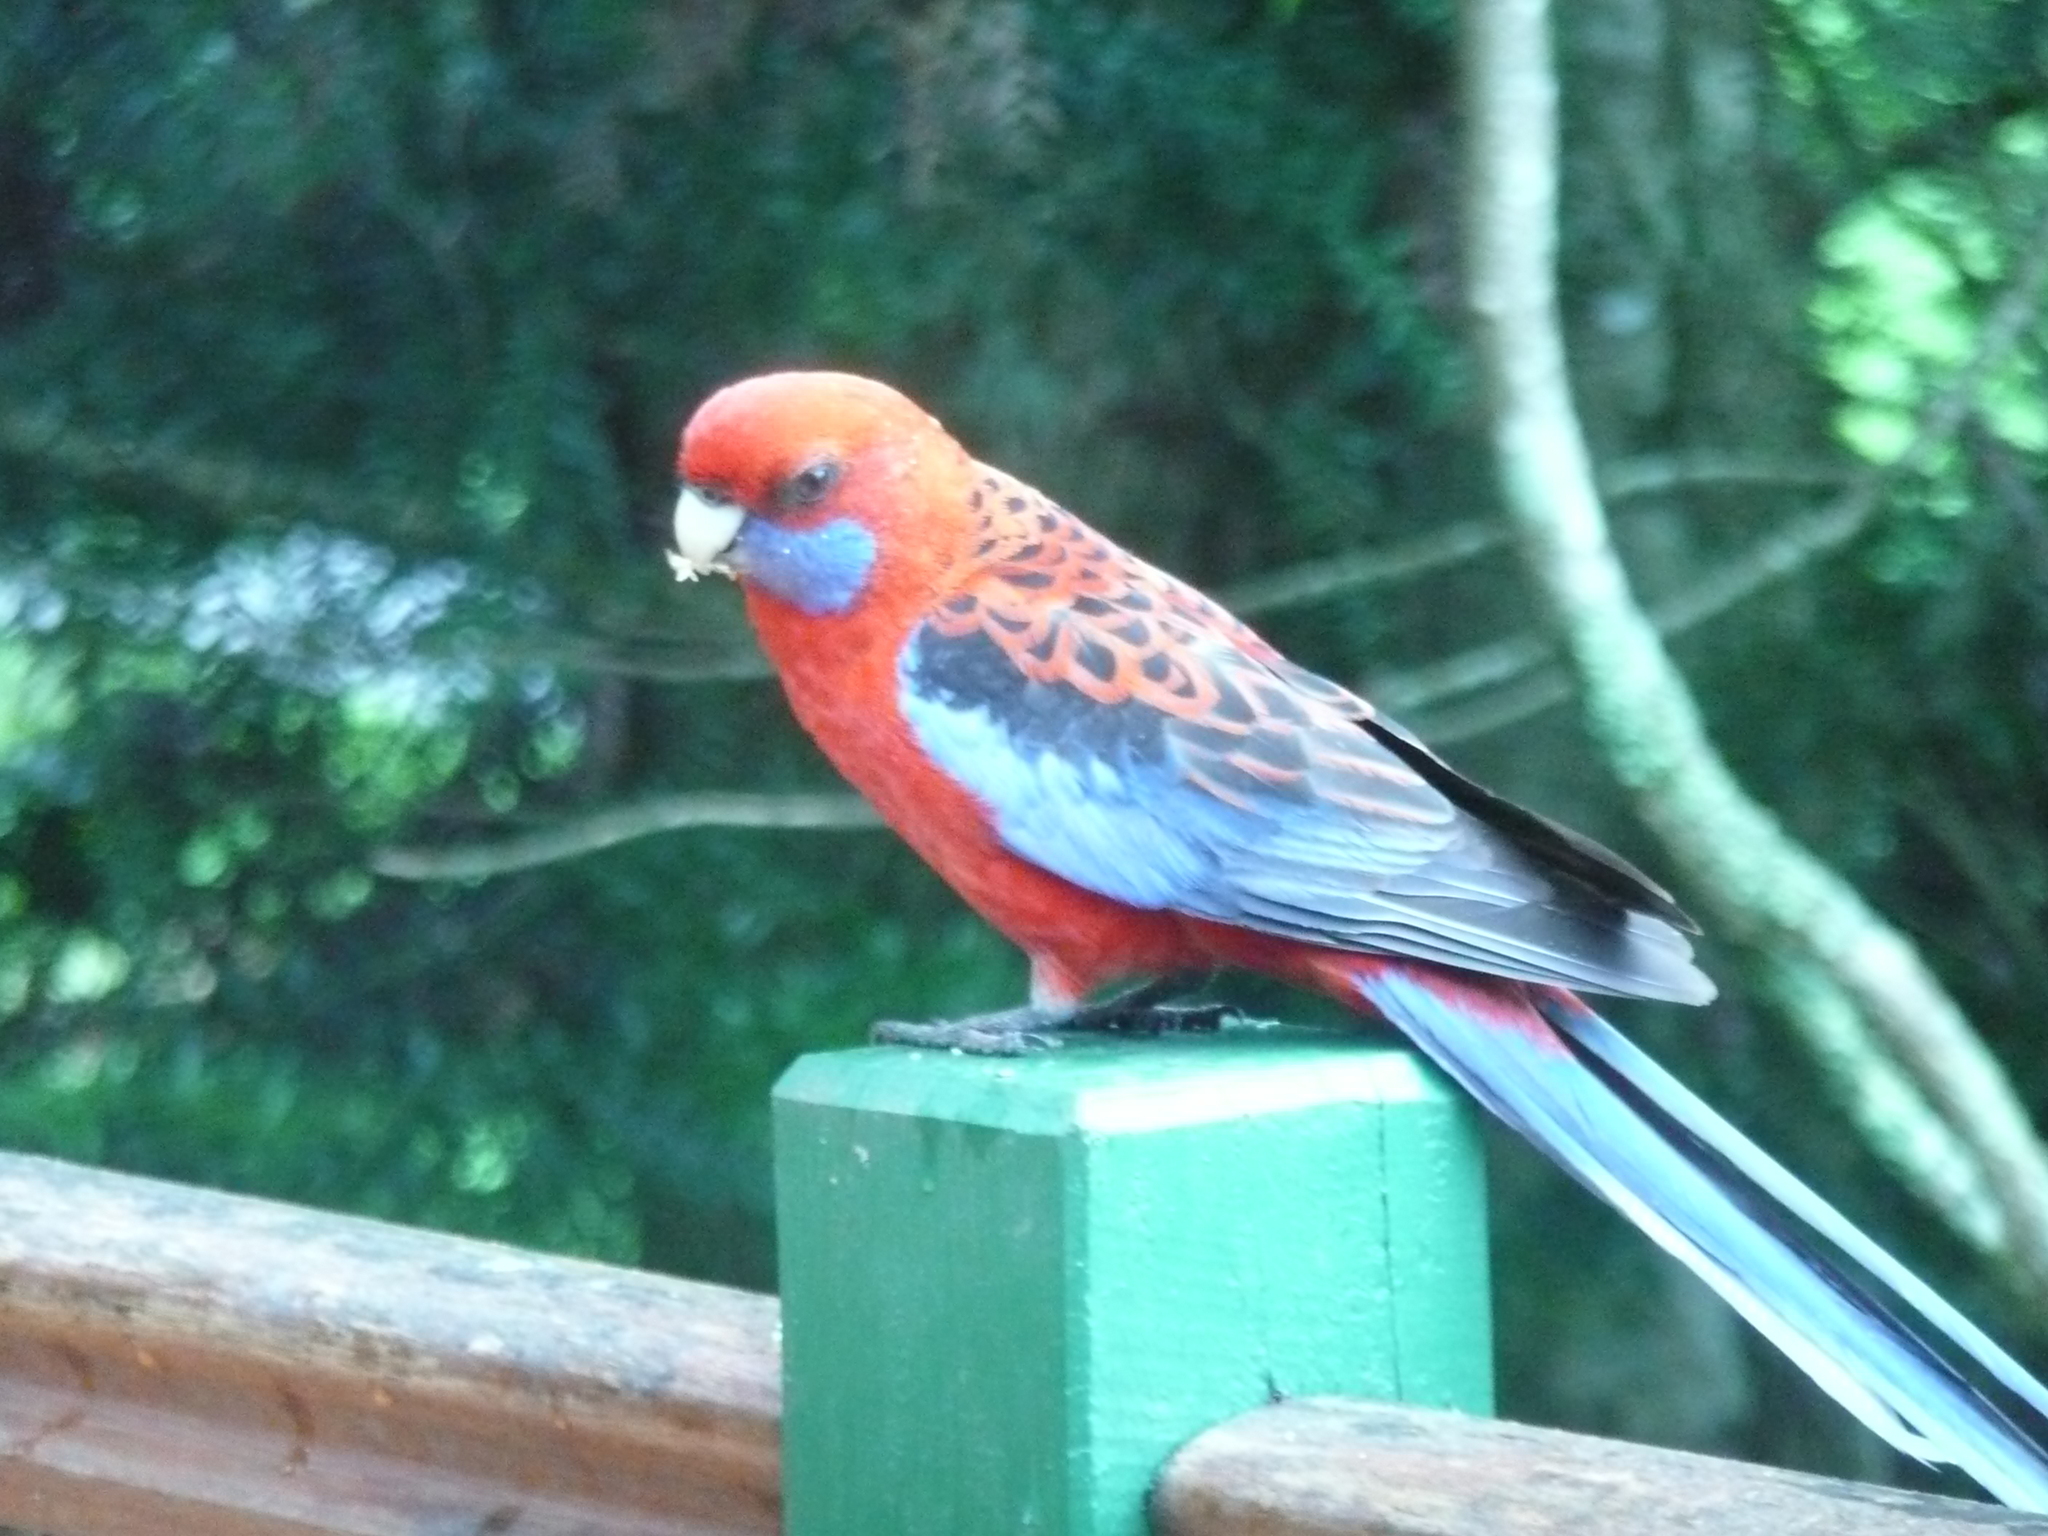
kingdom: Animalia
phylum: Chordata
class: Aves
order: Psittaciformes
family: Psittacidae
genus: Platycercus
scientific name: Platycercus elegans
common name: Crimson rosella
